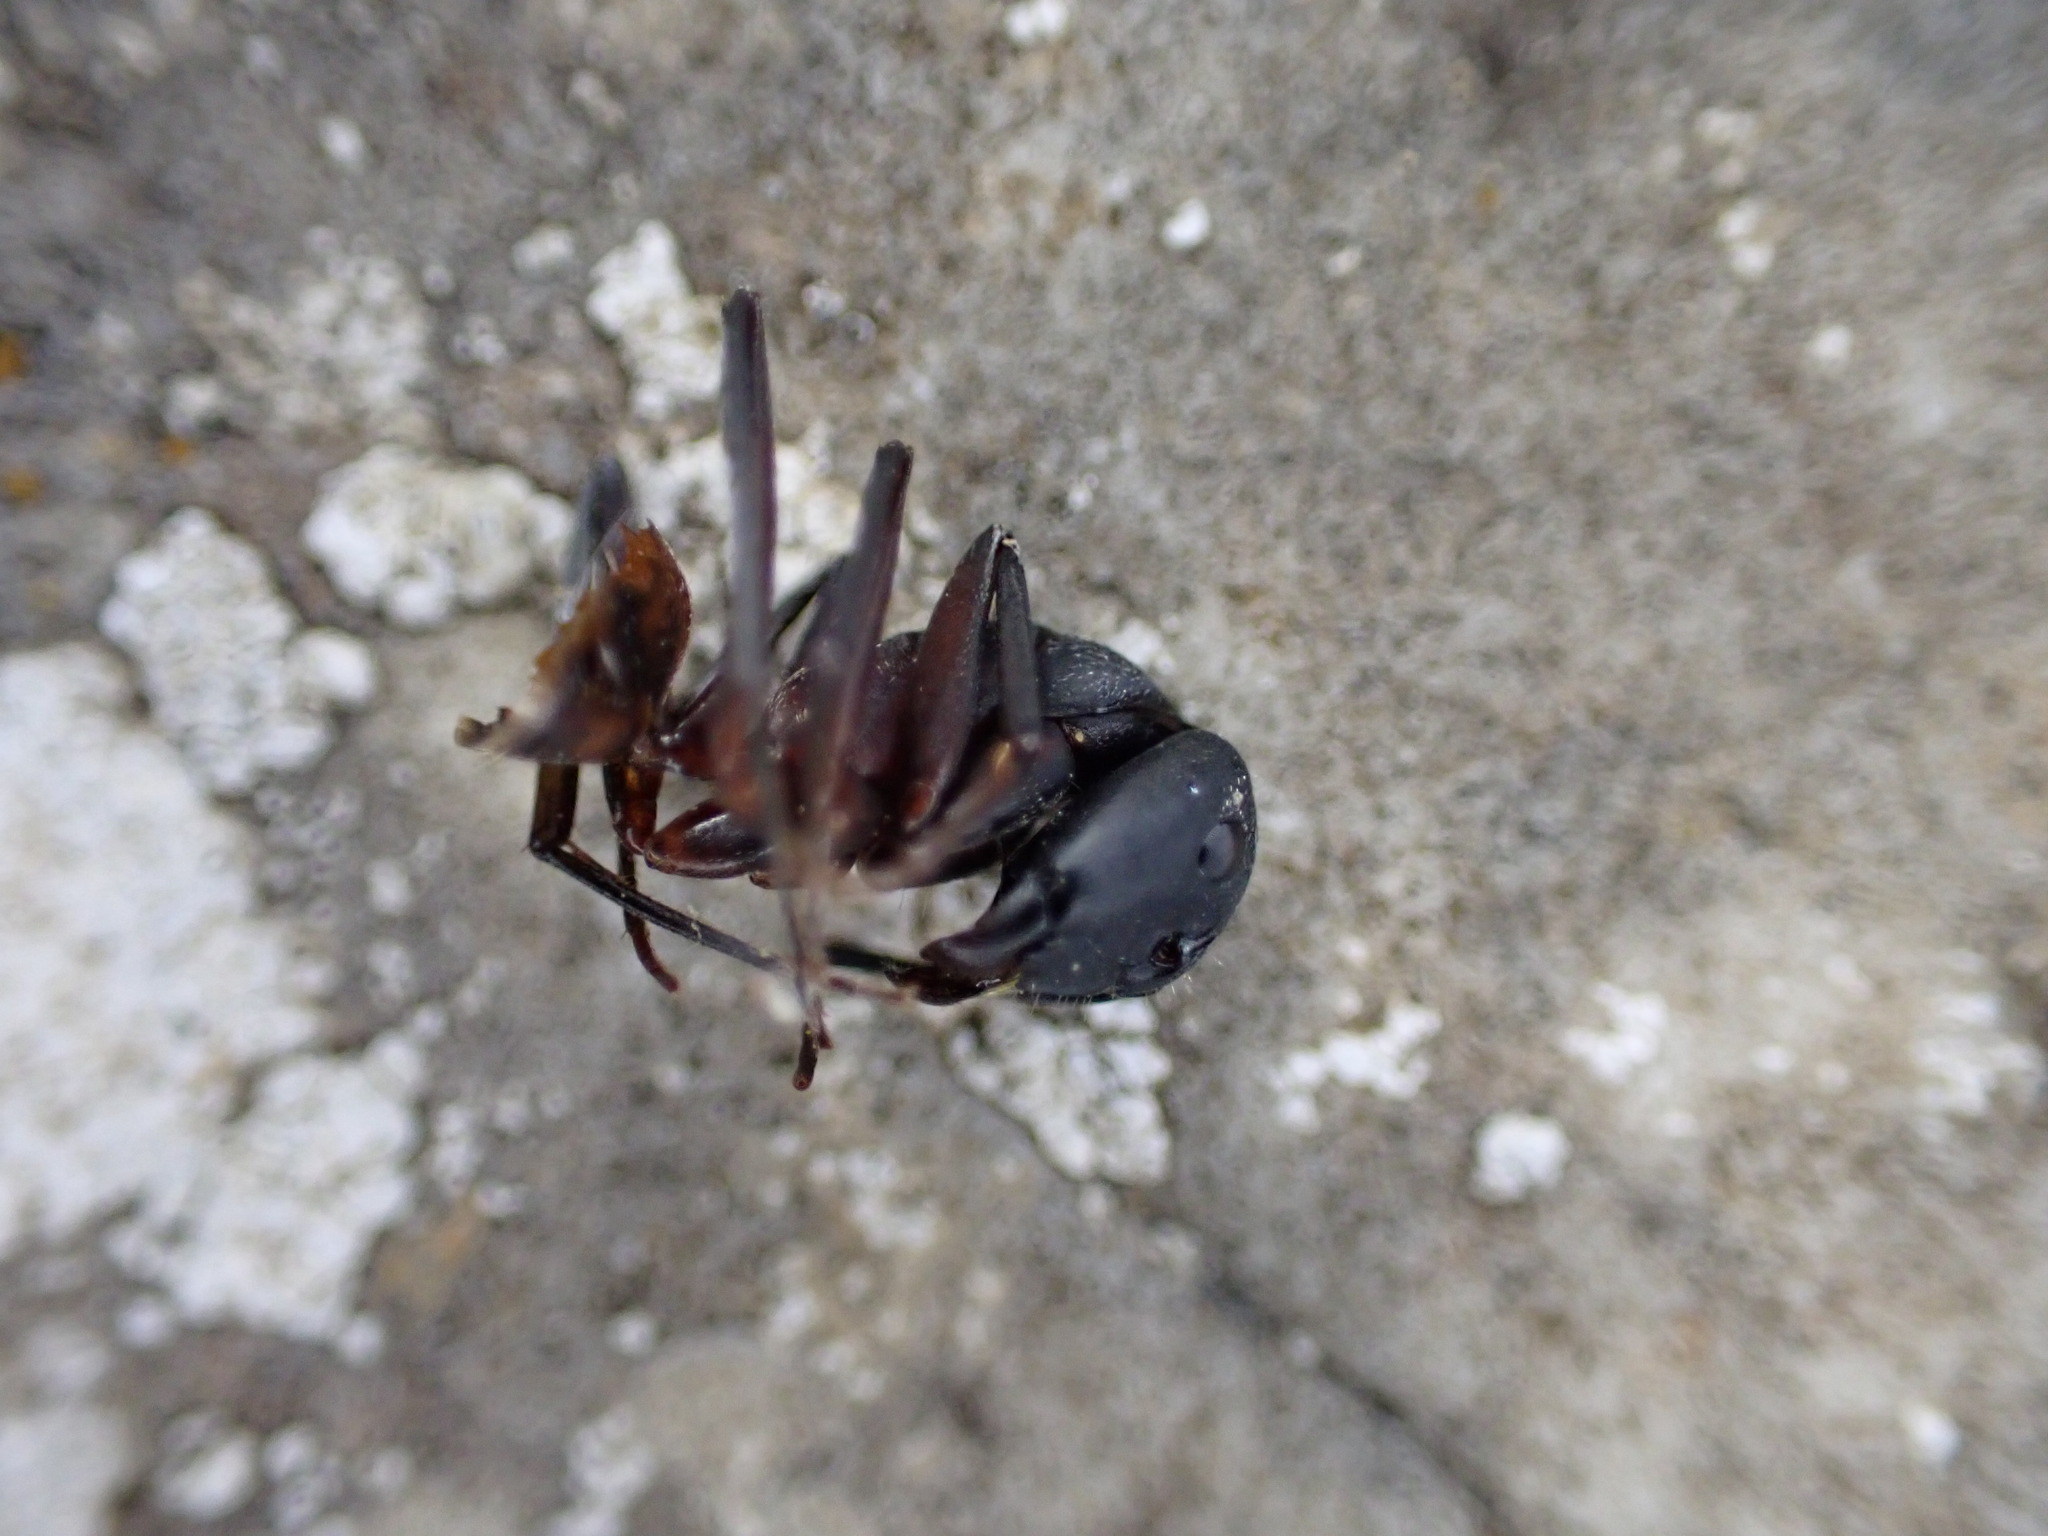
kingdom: Animalia
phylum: Arthropoda
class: Insecta
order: Hymenoptera
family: Formicidae
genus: Camponotus
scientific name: Camponotus cruentatus
